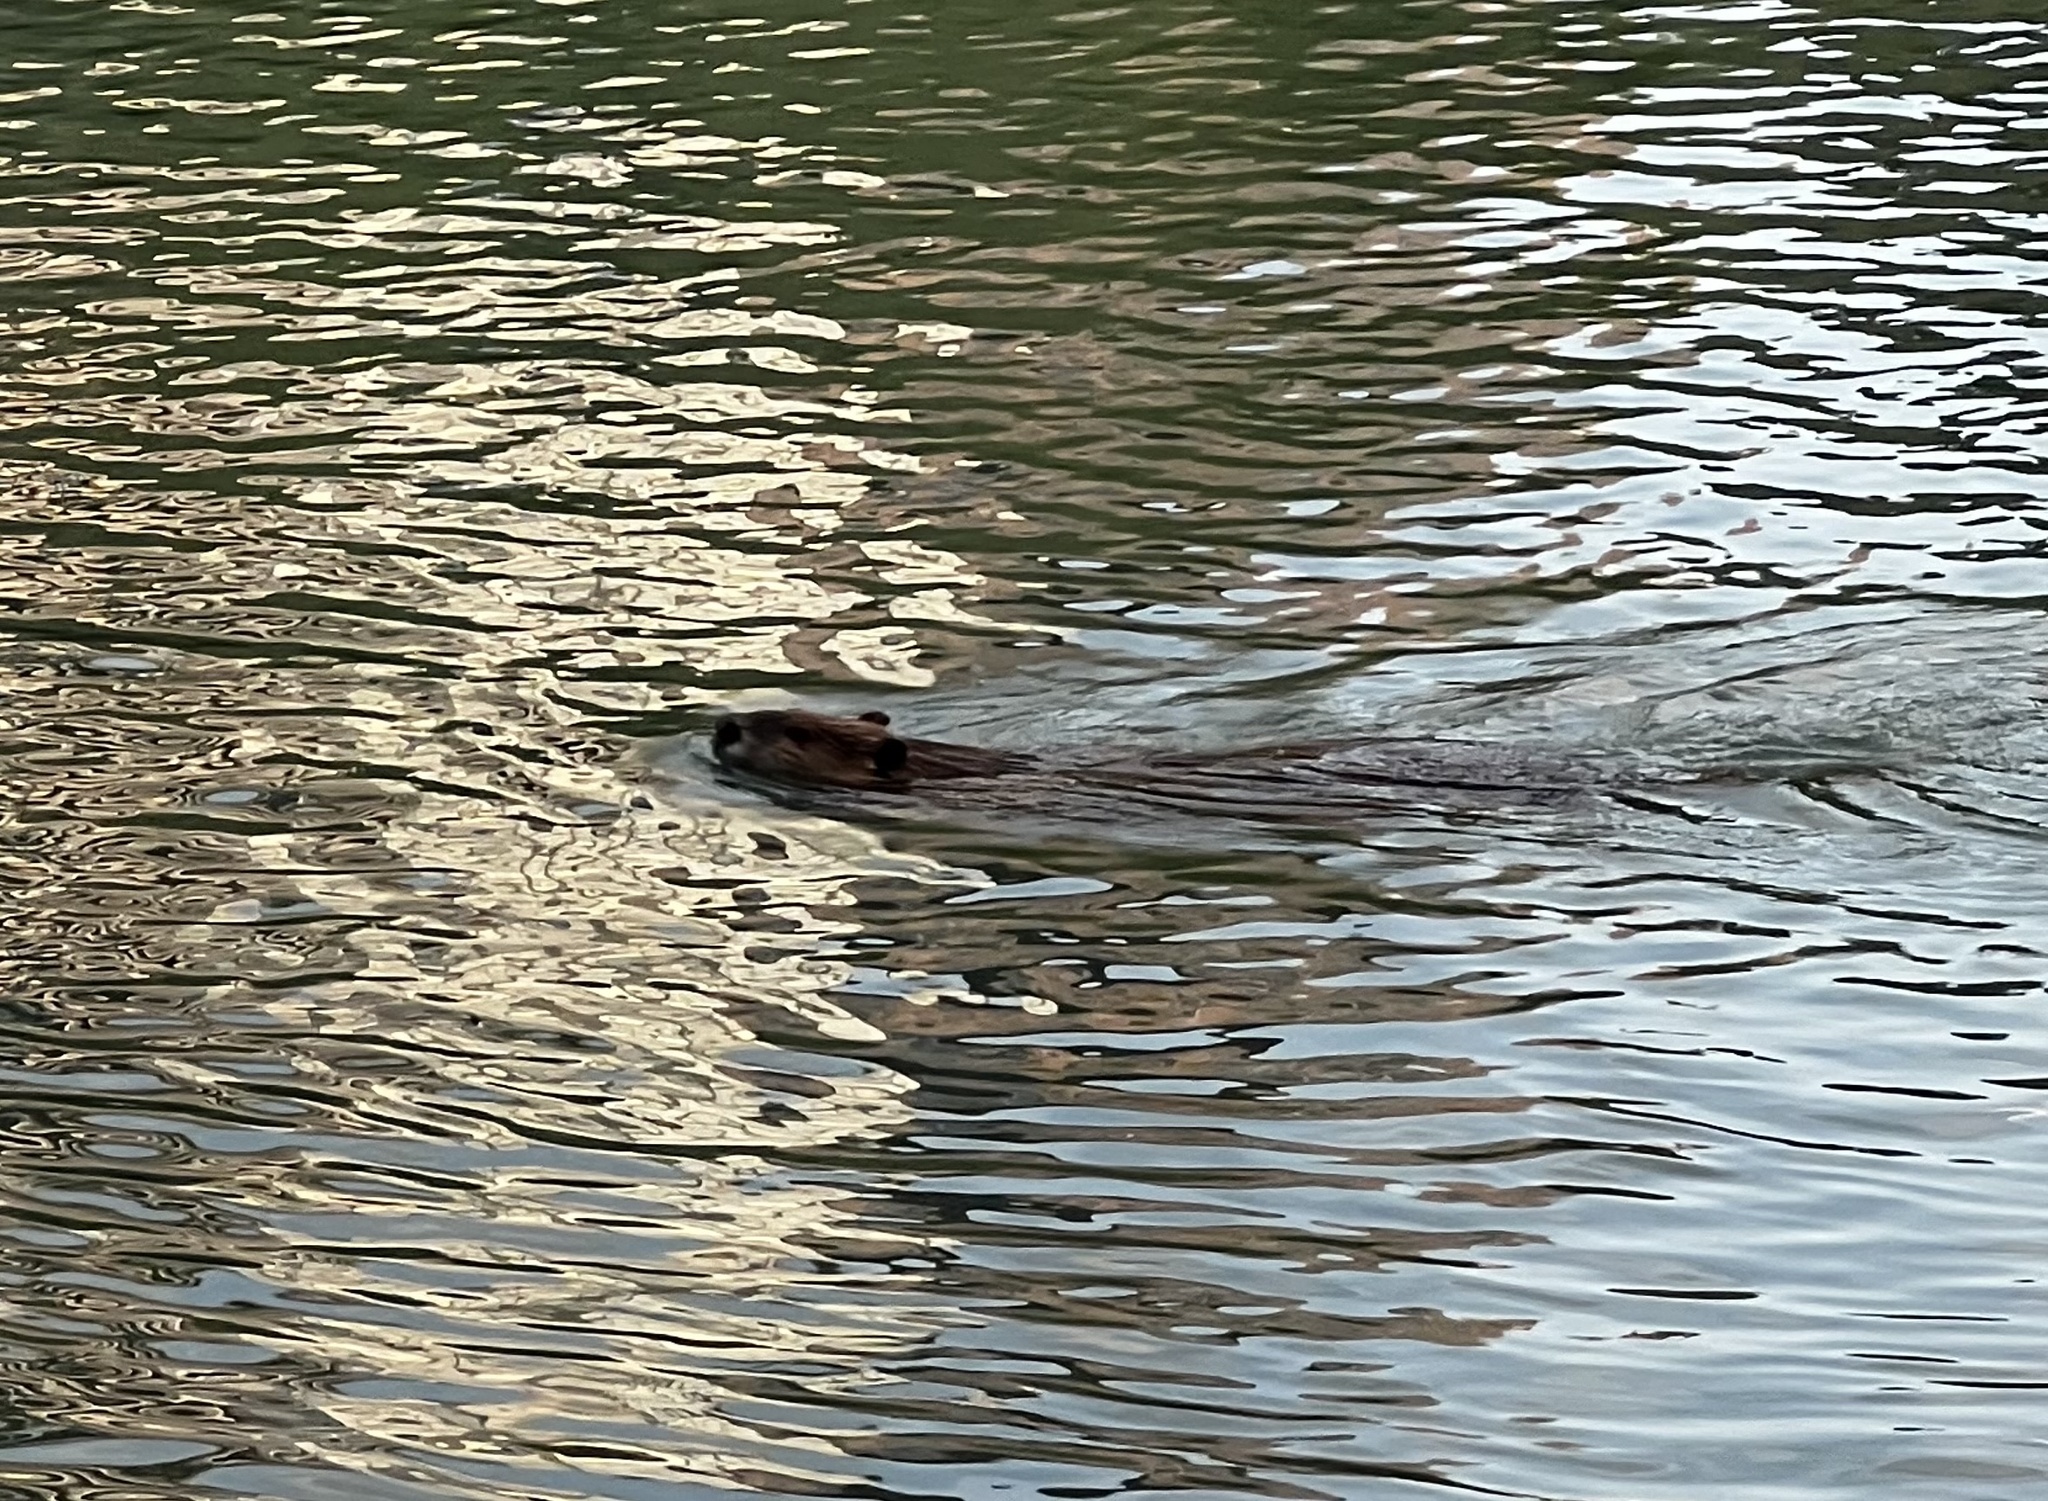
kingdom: Animalia
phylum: Chordata
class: Mammalia
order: Rodentia
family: Castoridae
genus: Castor
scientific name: Castor canadensis
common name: American beaver
